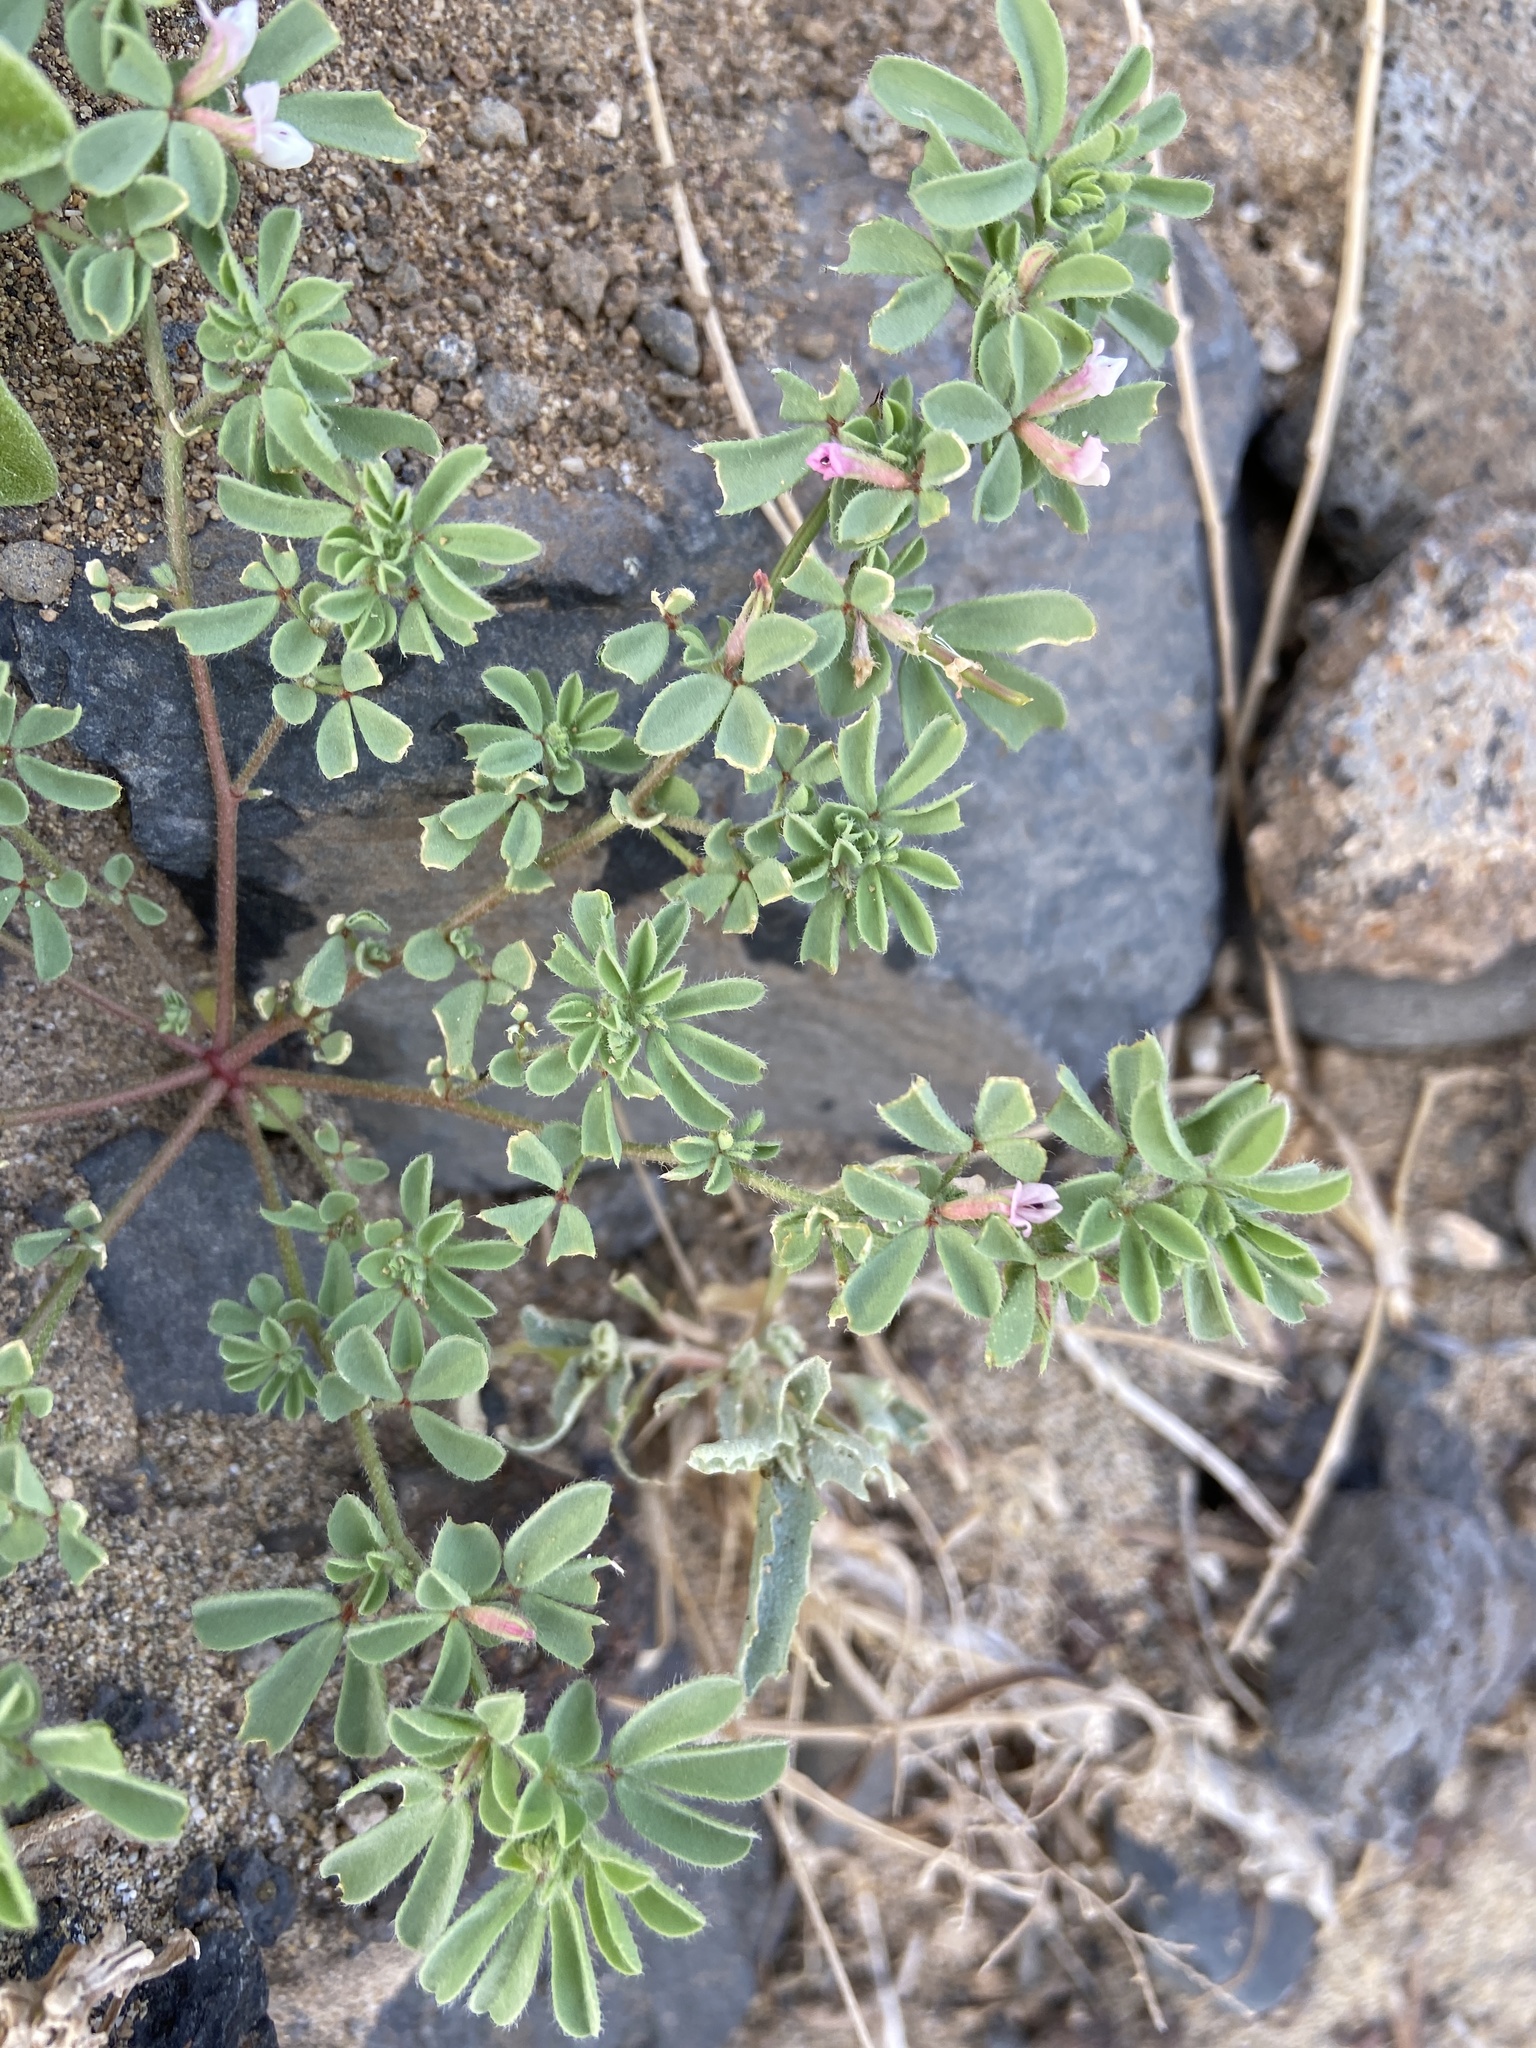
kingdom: Plantae
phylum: Tracheophyta
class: Magnoliopsida
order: Fabales
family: Fabaceae
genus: Lotus
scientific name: Lotus glinoides
